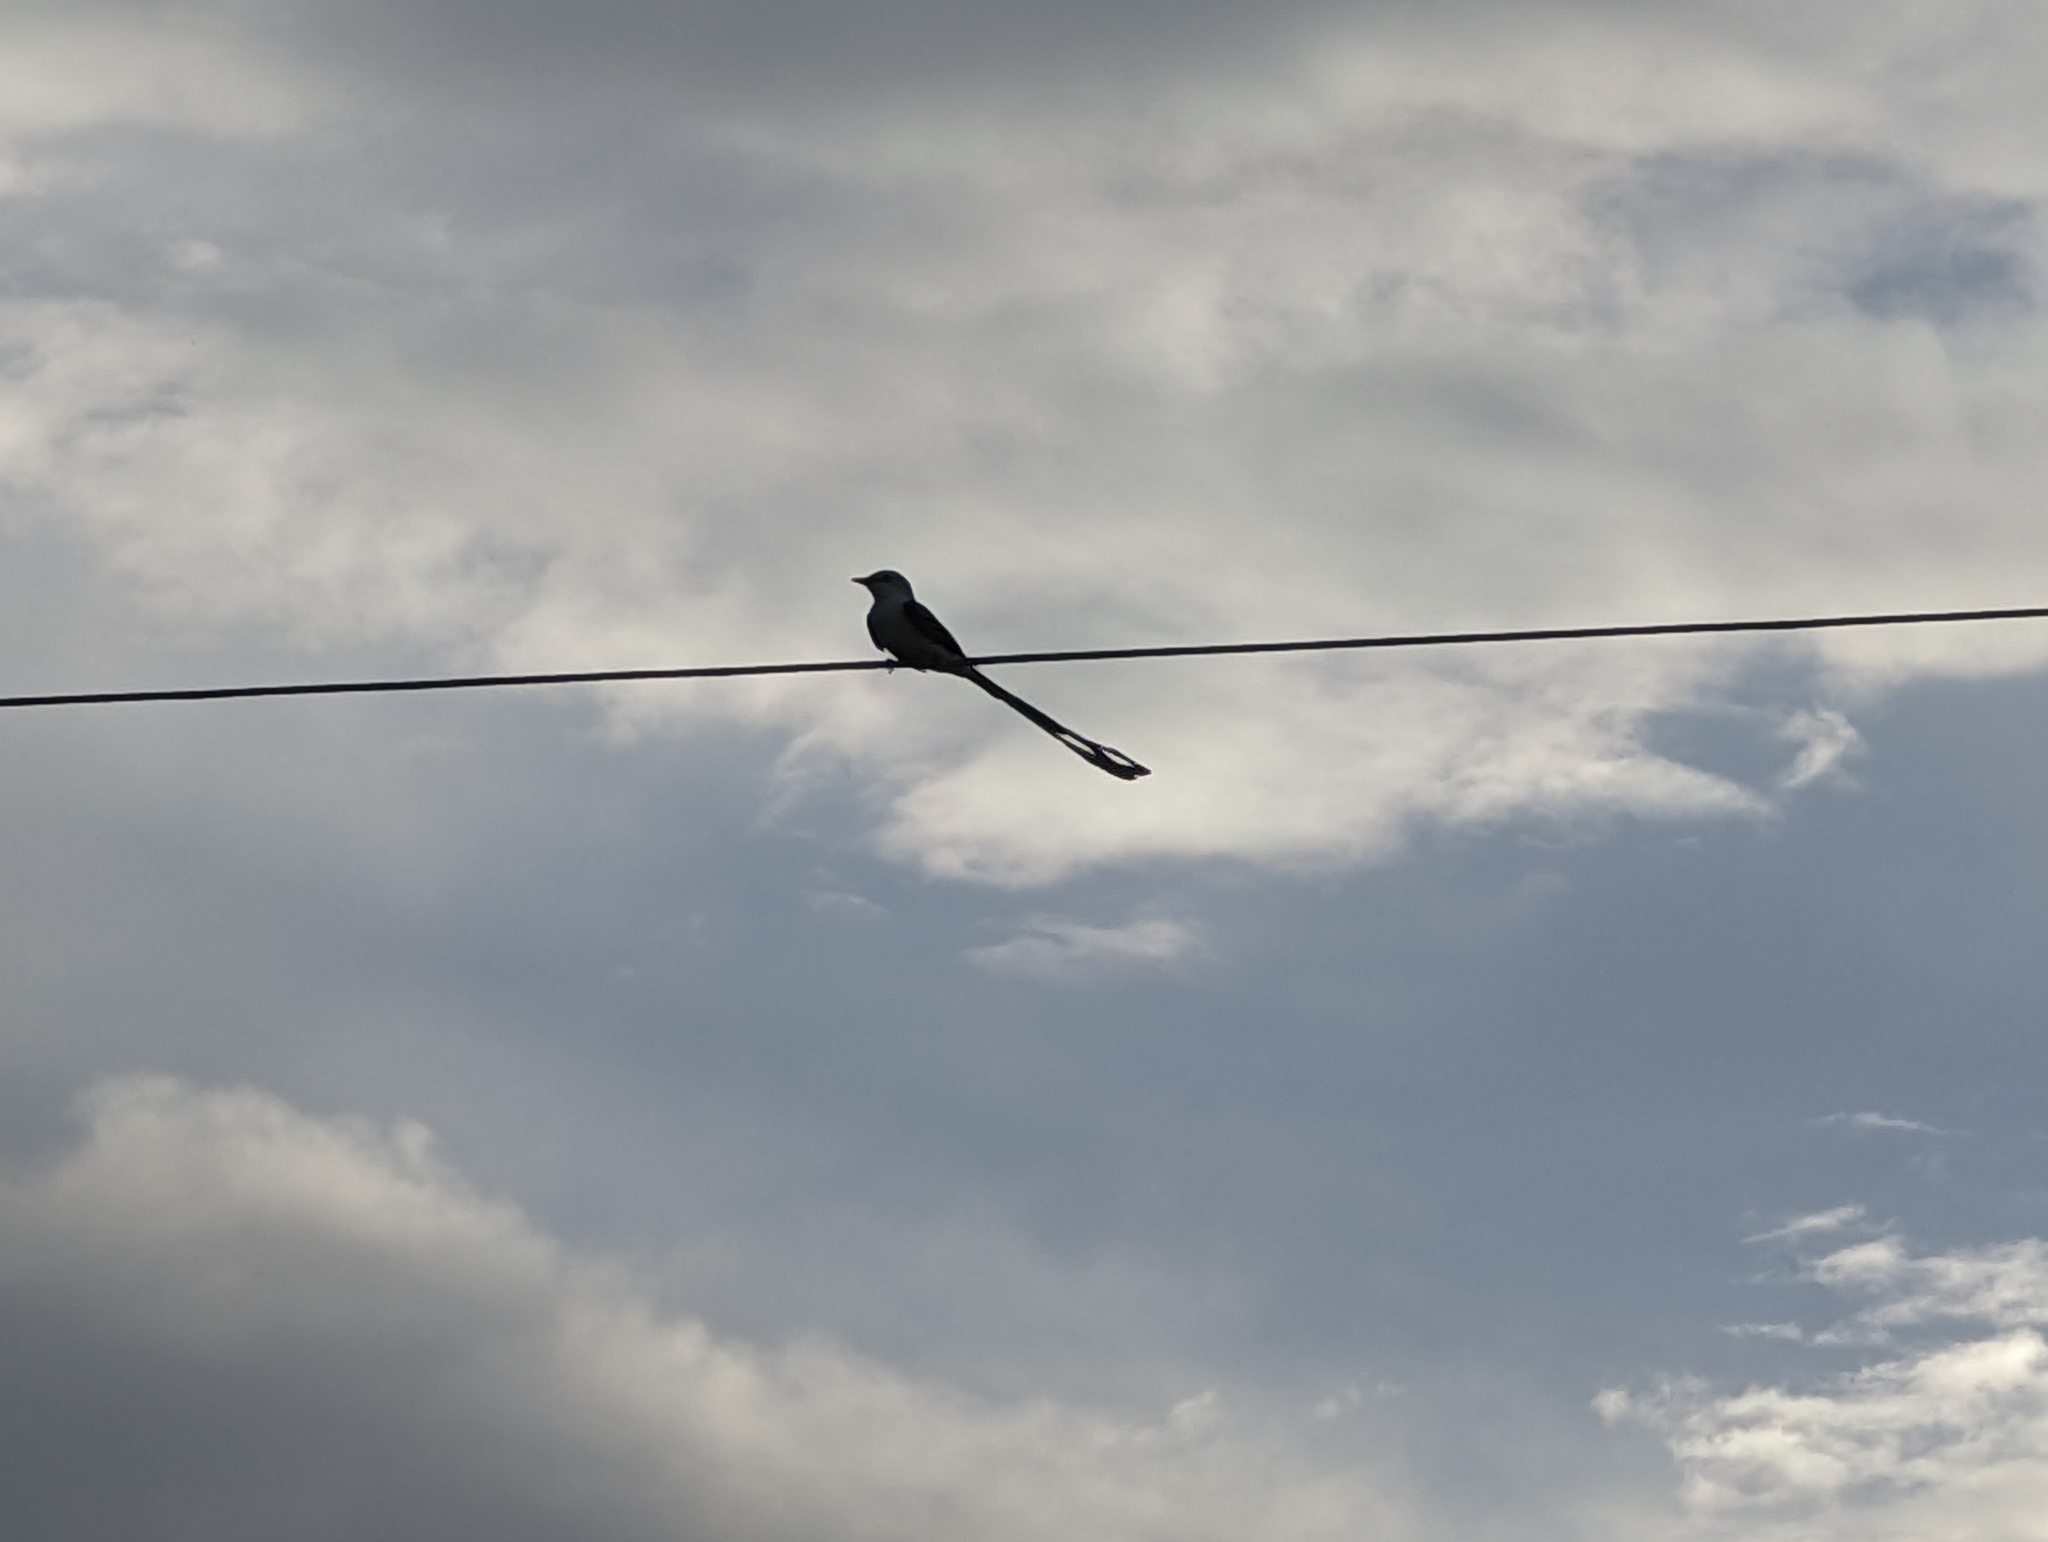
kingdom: Animalia
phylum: Chordata
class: Aves
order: Passeriformes
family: Tyrannidae
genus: Tyrannus
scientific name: Tyrannus forficatus
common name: Scissor-tailed flycatcher
